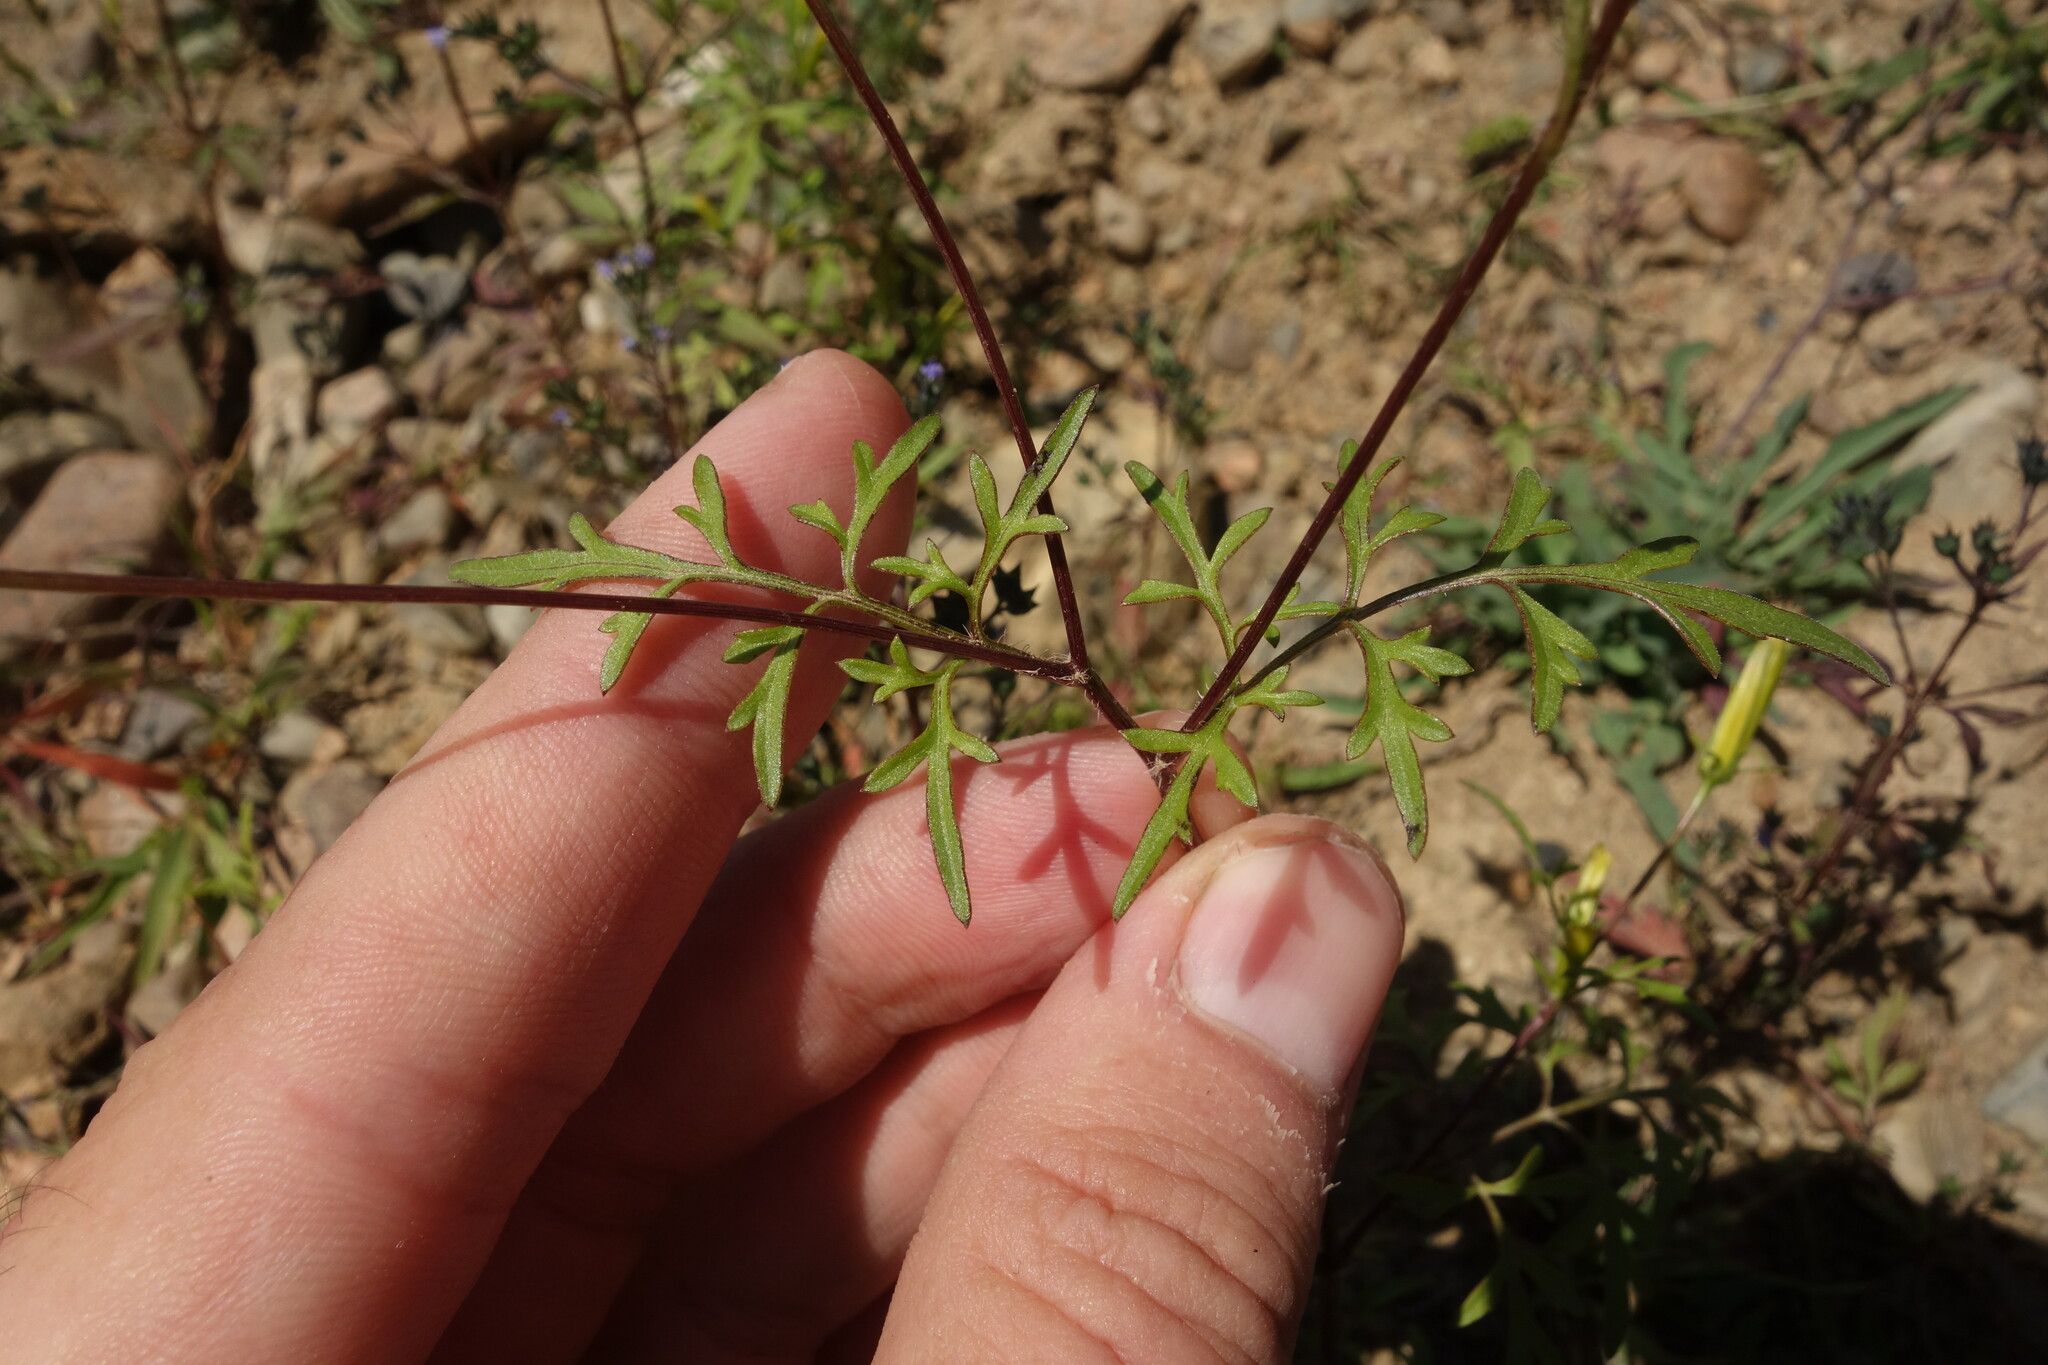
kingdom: Plantae
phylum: Tracheophyta
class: Magnoliopsida
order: Asterales
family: Asteraceae
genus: Bidens
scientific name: Bidens parviflora
